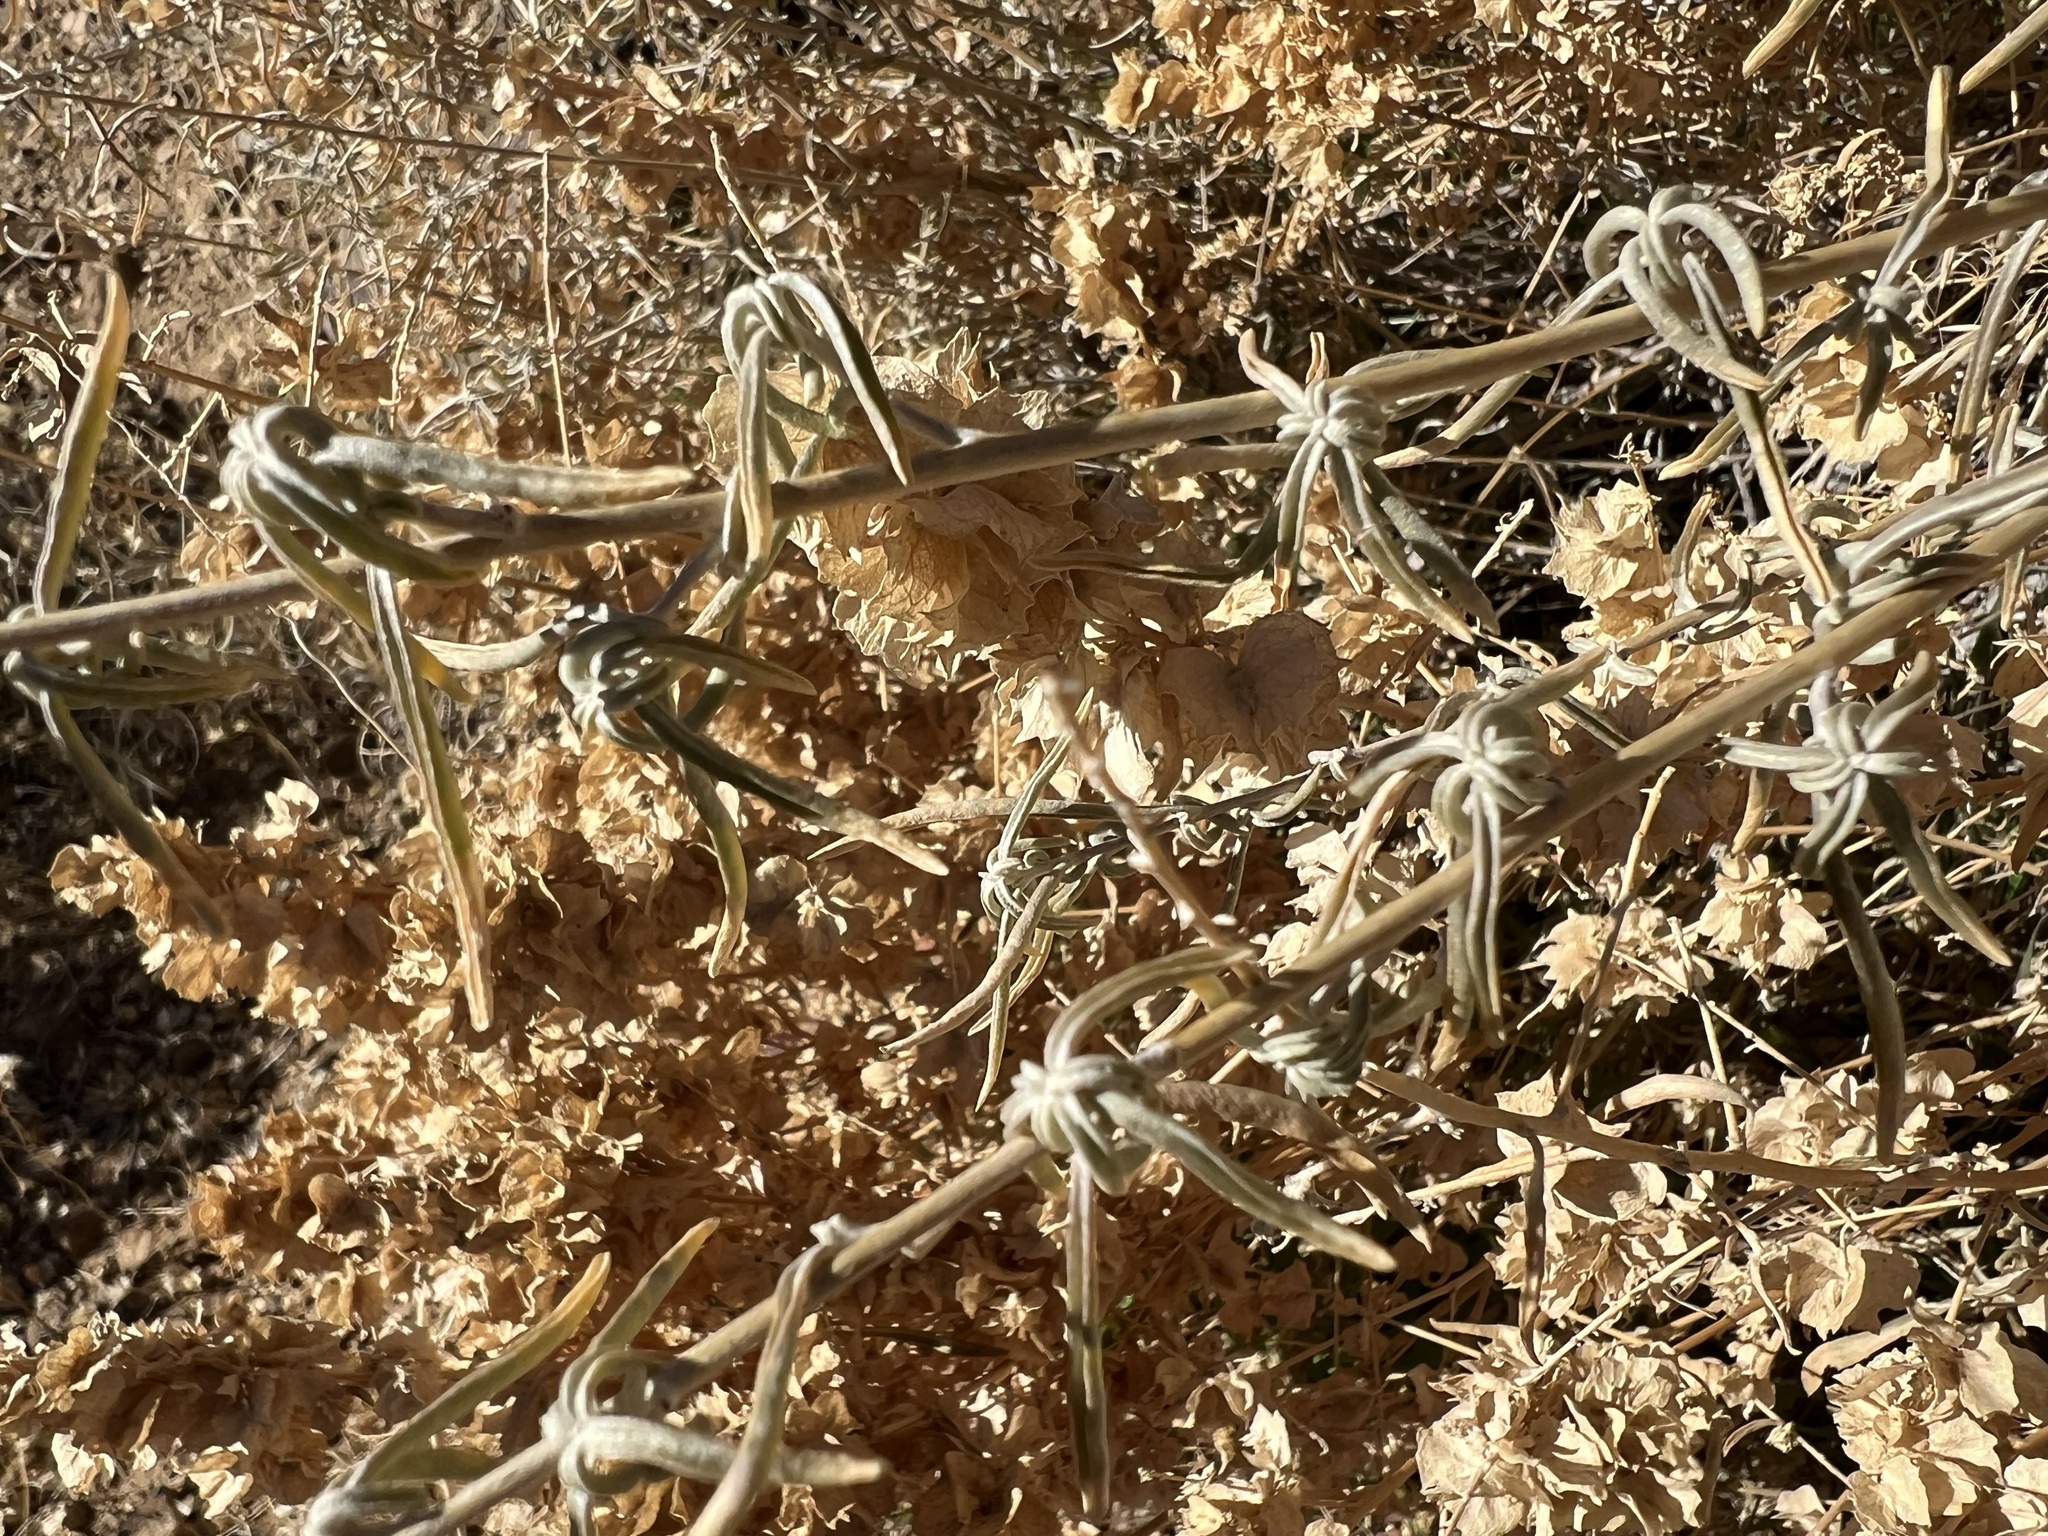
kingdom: Plantae
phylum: Tracheophyta
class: Magnoliopsida
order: Caryophyllales
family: Amaranthaceae
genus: Atriplex
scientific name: Atriplex canescens
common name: Four-wing saltbush
